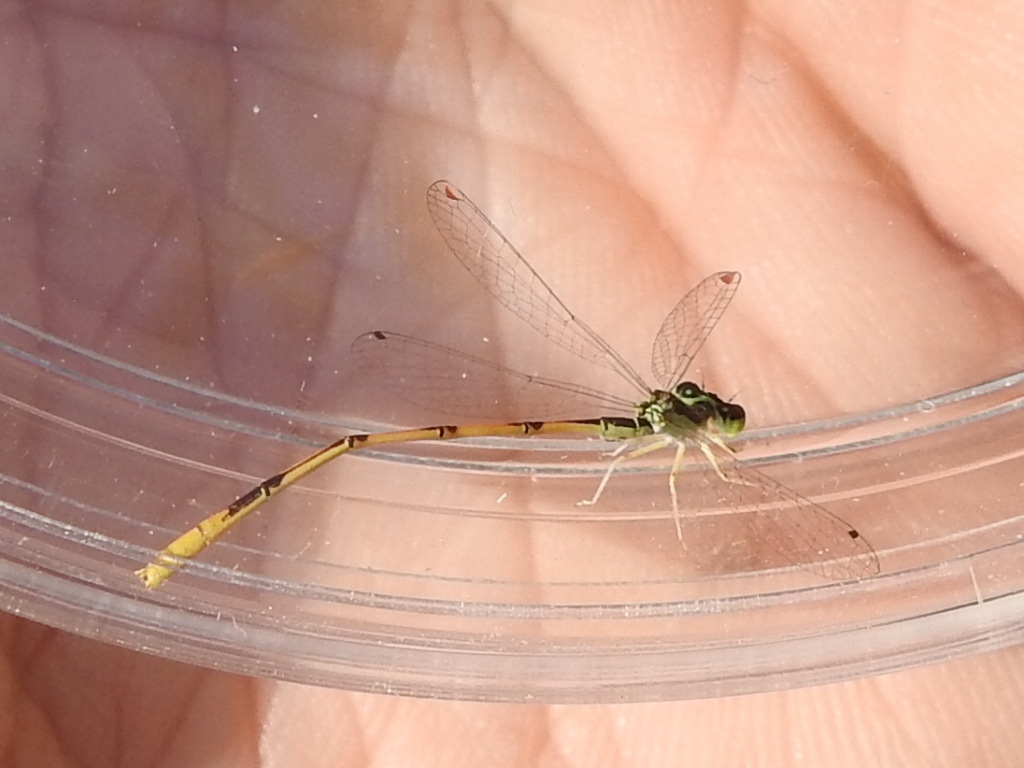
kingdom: Animalia
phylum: Arthropoda
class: Insecta
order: Odonata
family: Coenagrionidae
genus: Ischnura
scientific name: Ischnura hastata
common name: Citrine forktail
